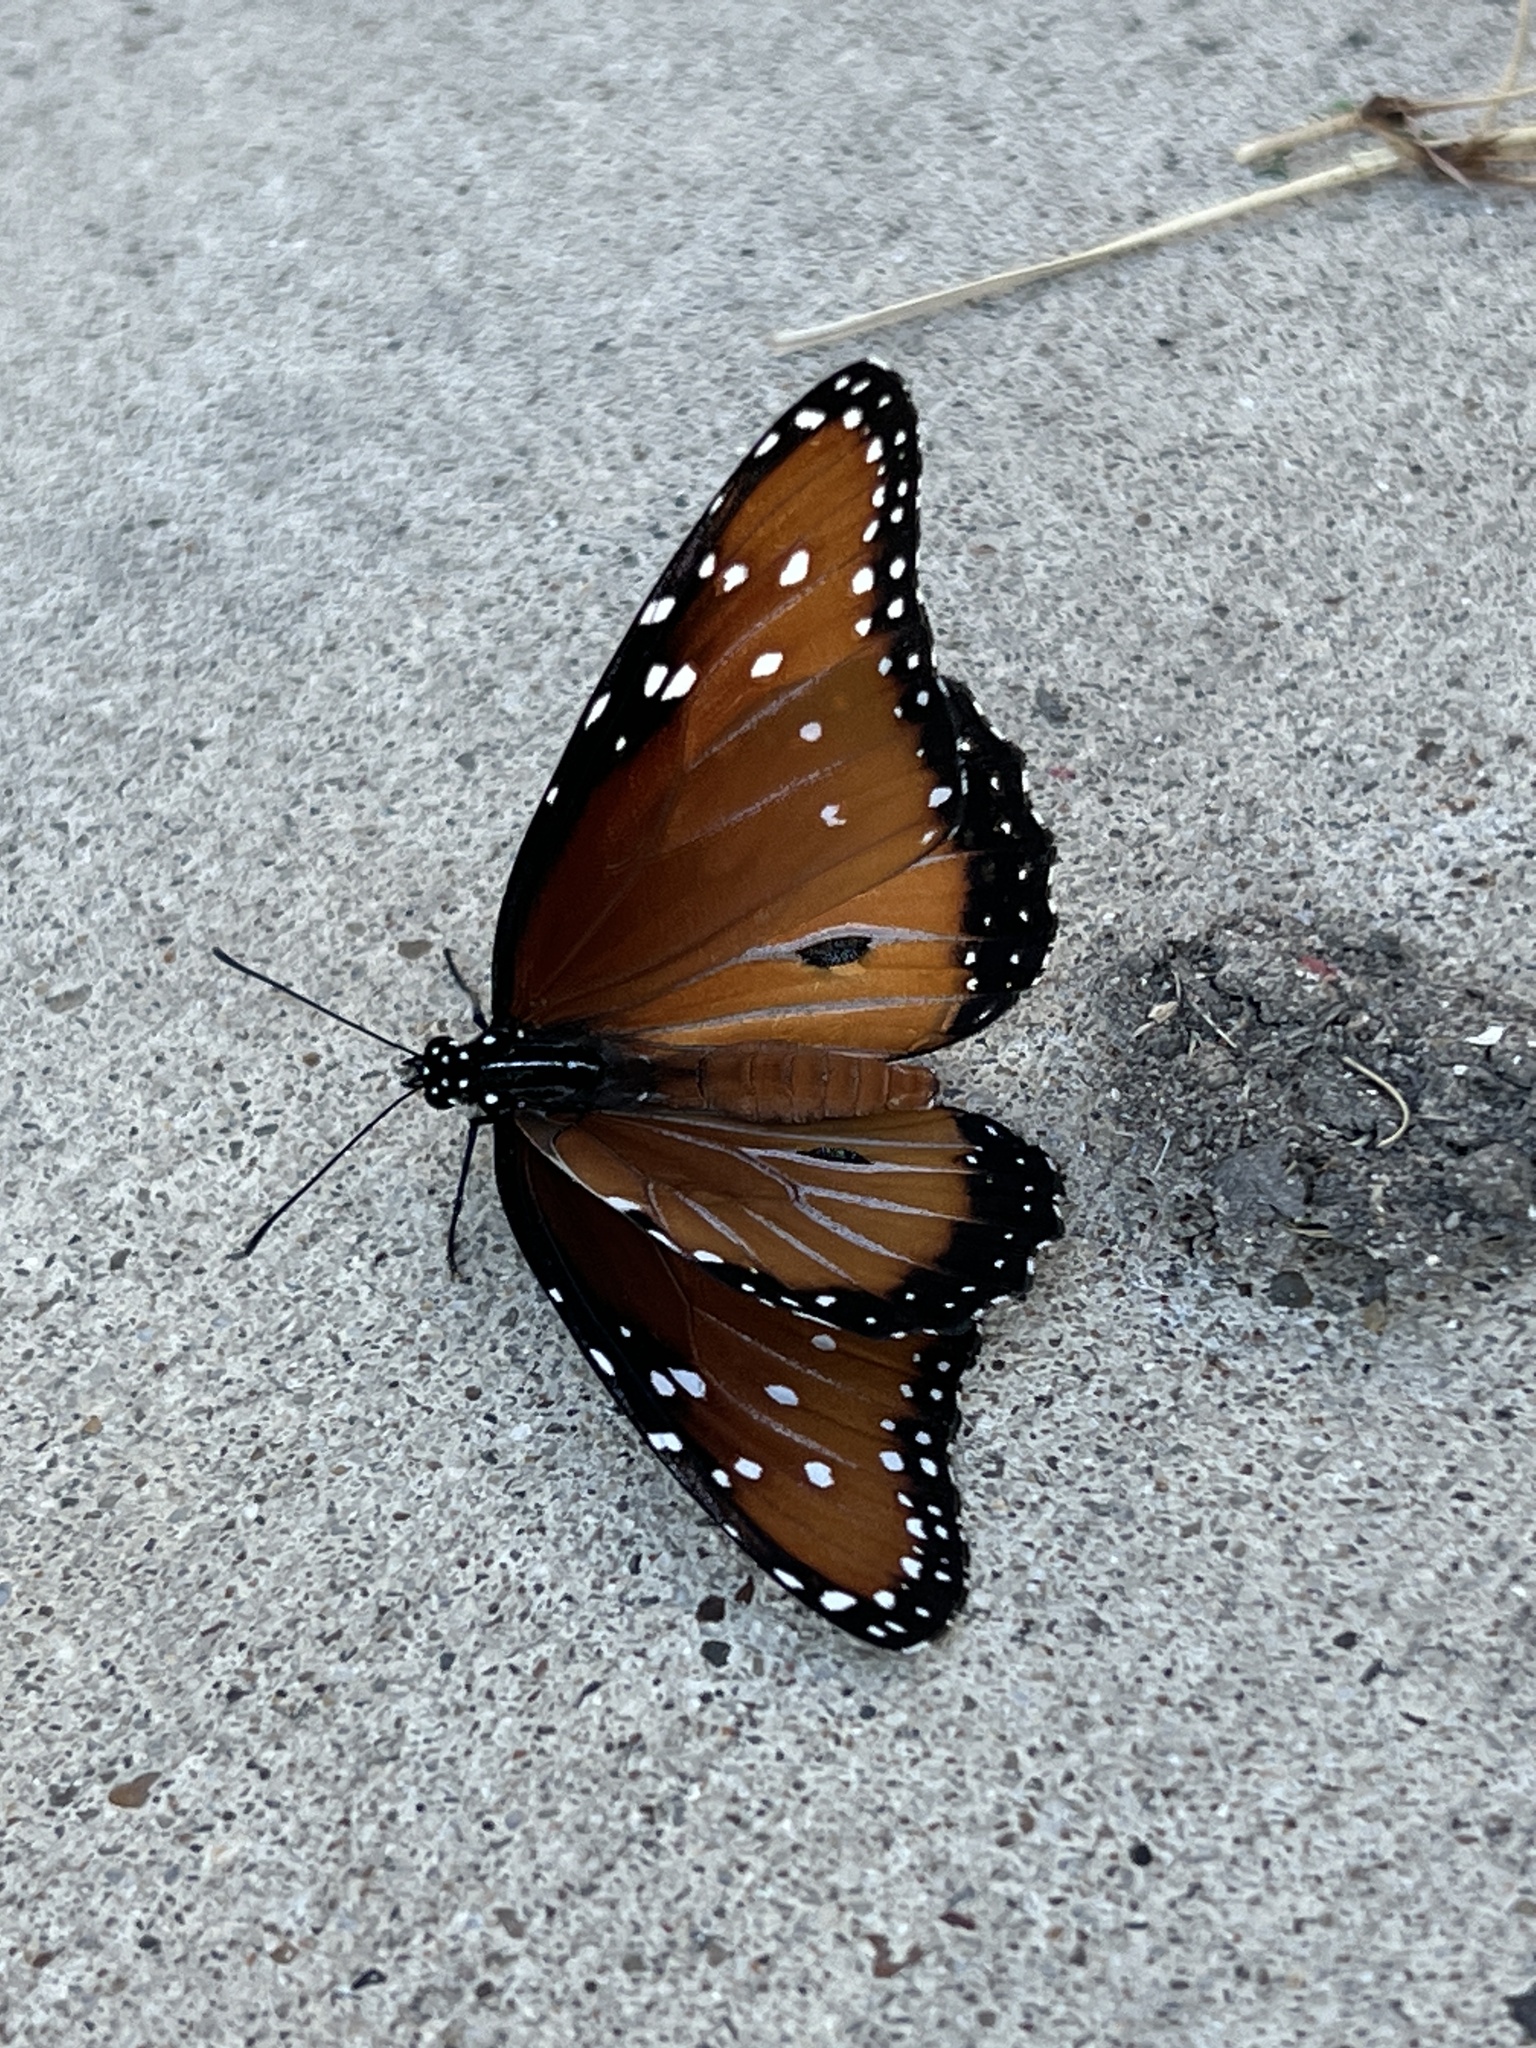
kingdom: Animalia
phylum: Arthropoda
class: Insecta
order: Lepidoptera
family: Nymphalidae
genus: Danaus
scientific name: Danaus gilippus
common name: Queen
